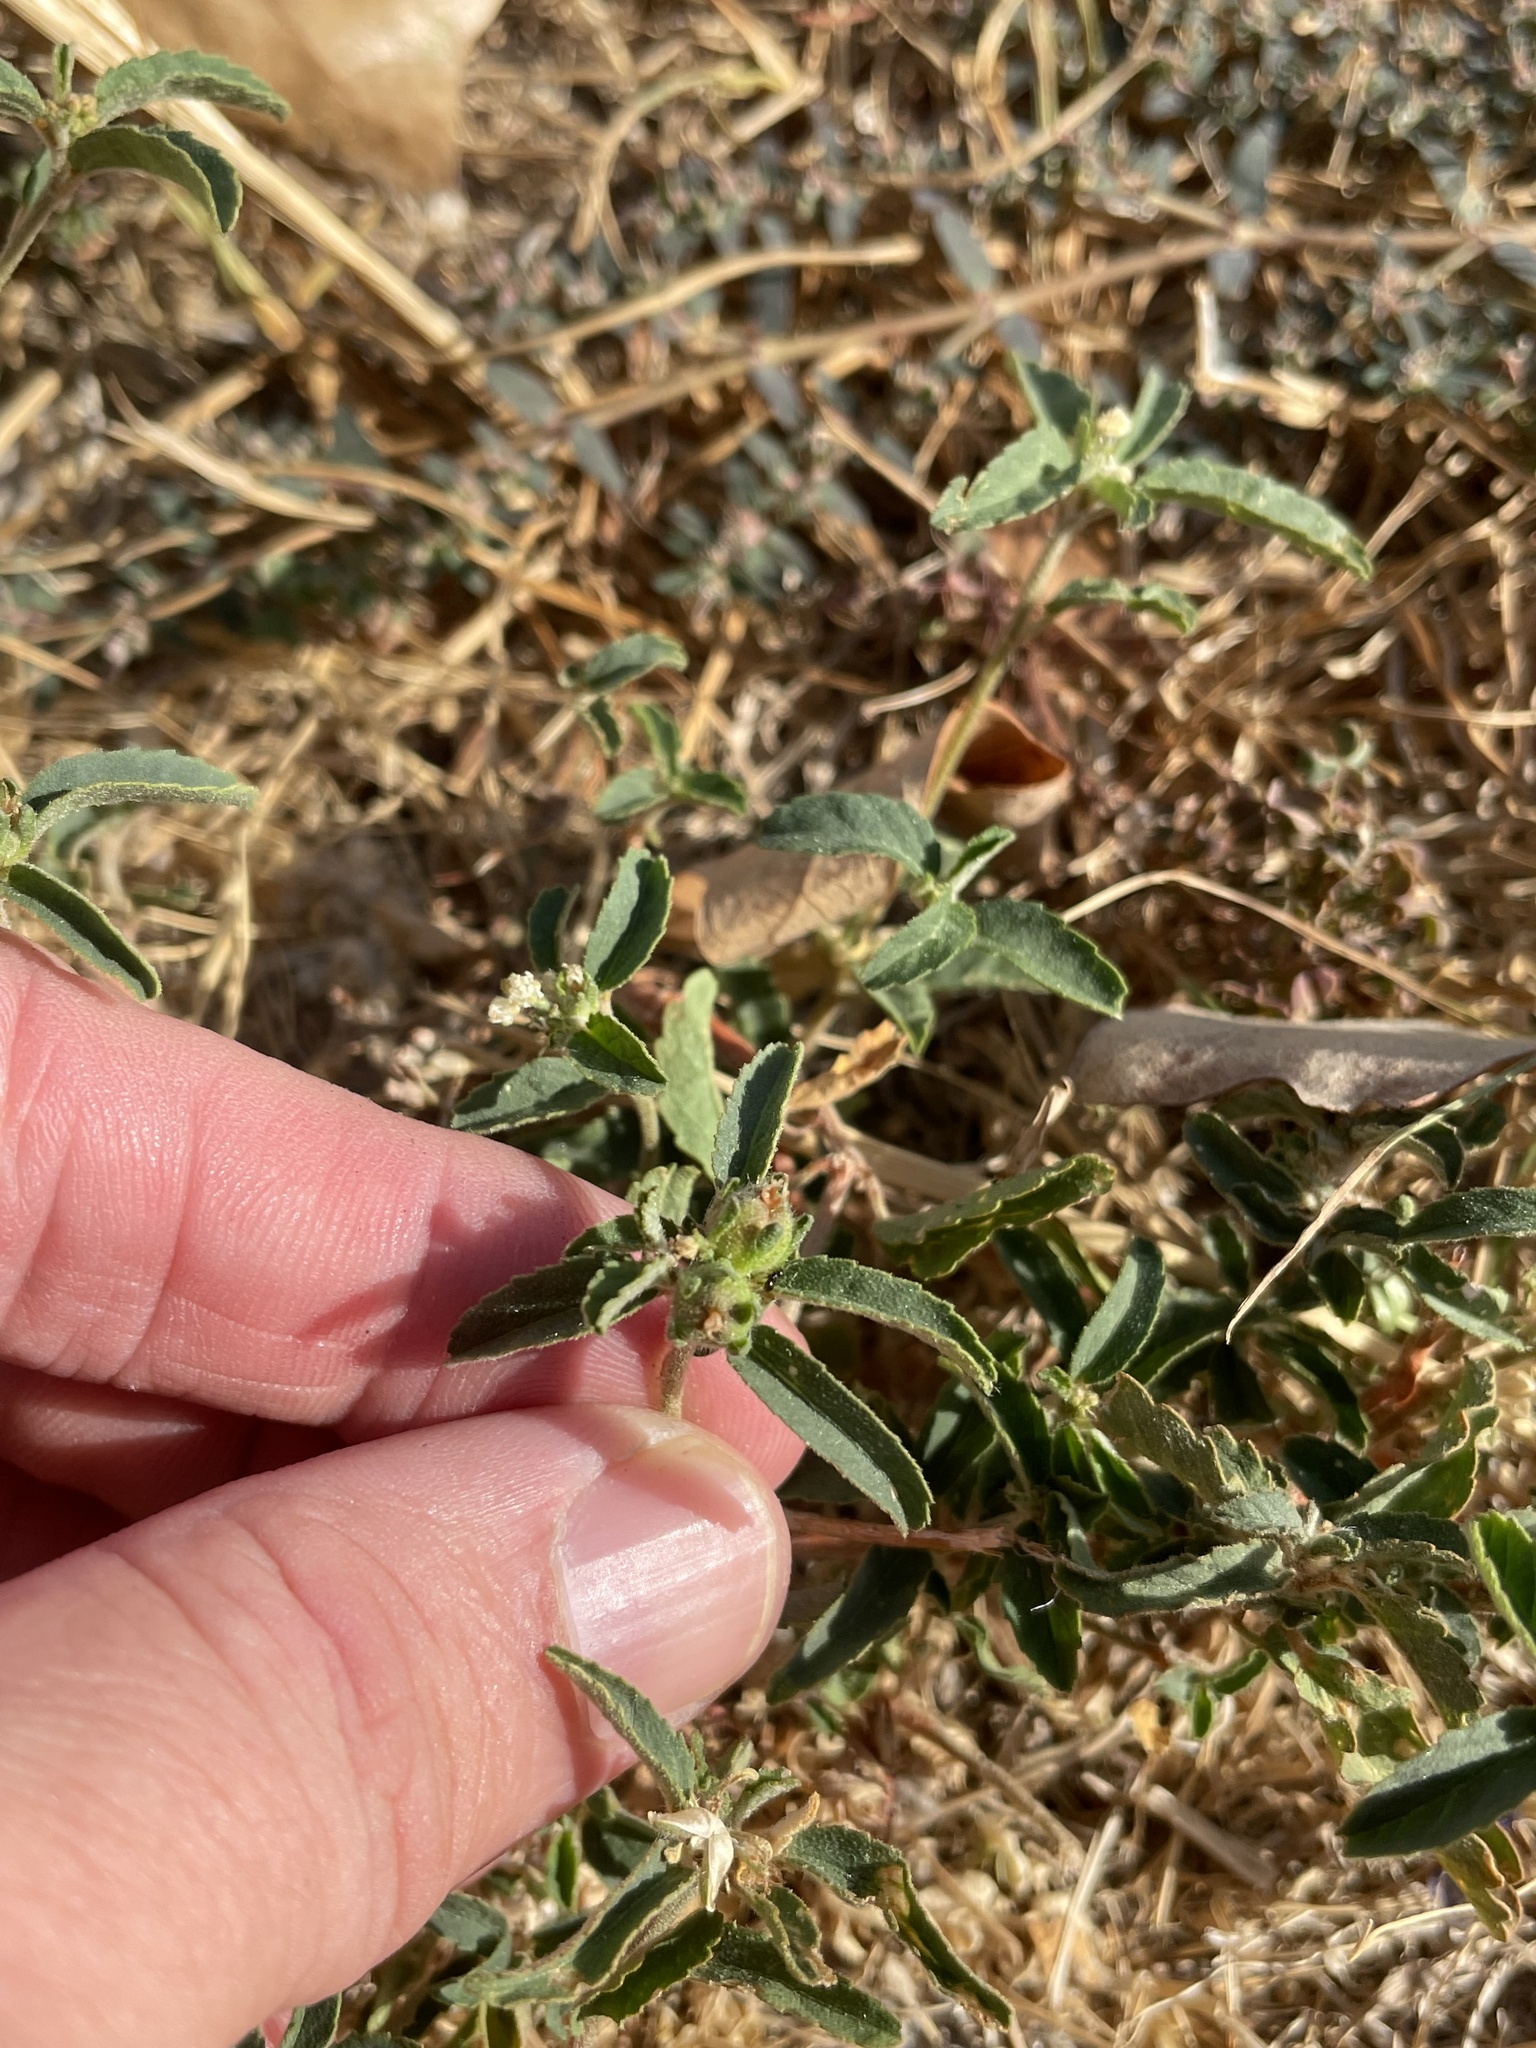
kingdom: Plantae
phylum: Tracheophyta
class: Magnoliopsida
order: Malpighiales
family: Euphorbiaceae
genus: Croton
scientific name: Croton glandulosus
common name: Tropic croton
